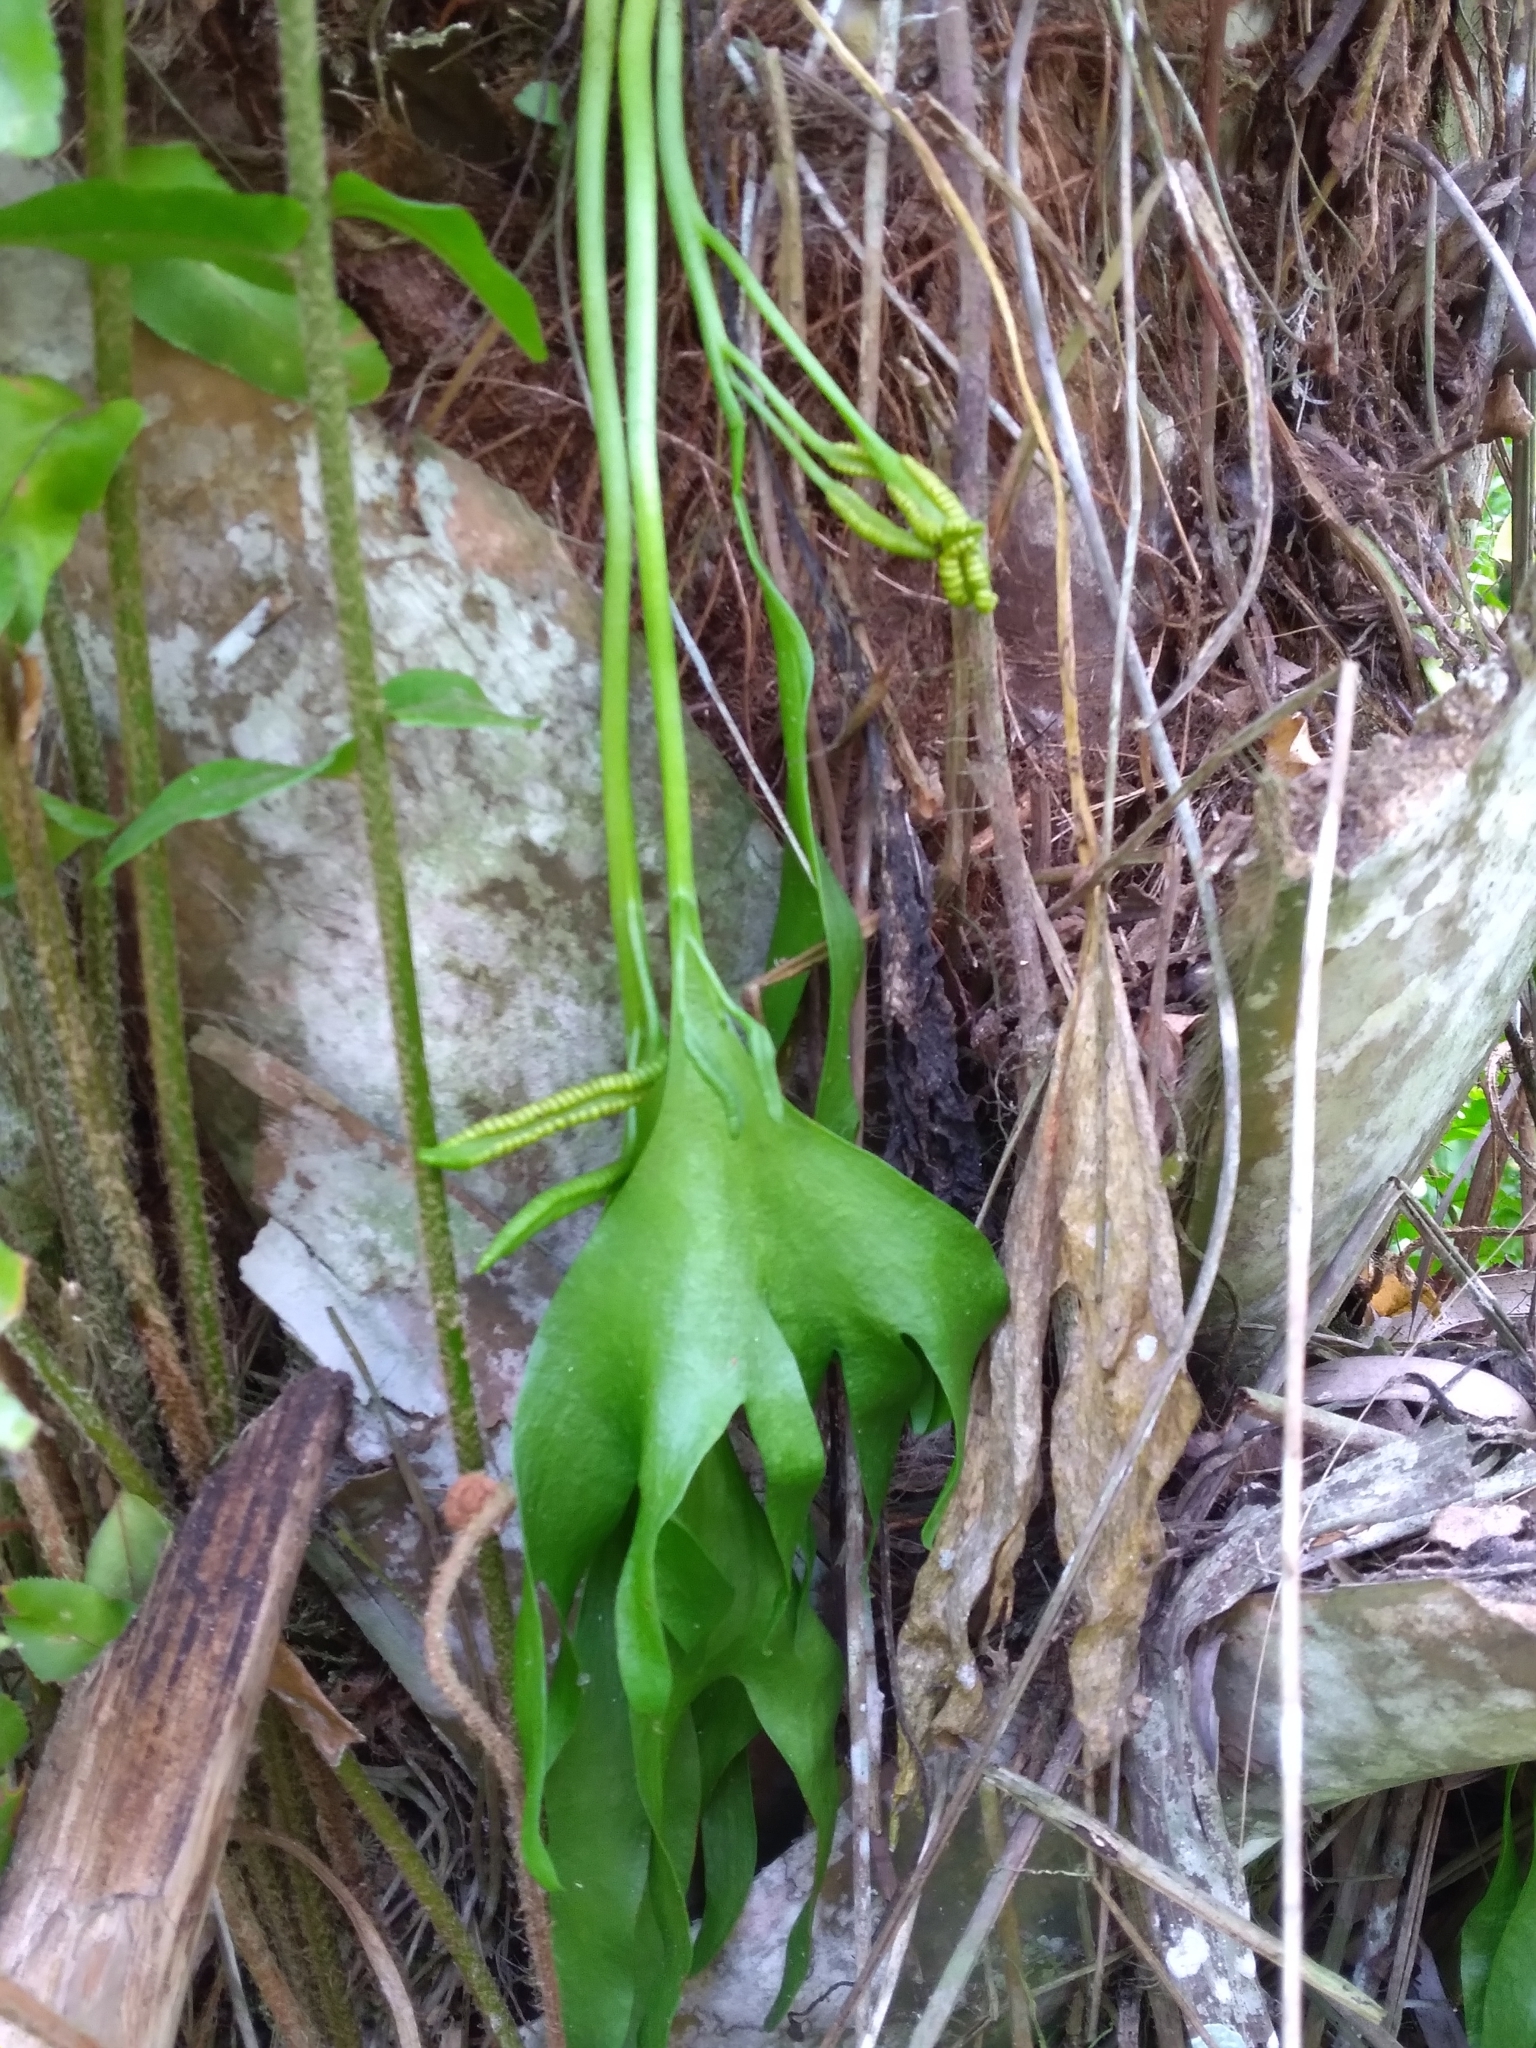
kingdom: Plantae
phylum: Tracheophyta
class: Polypodiopsida
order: Ophioglossales
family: Ophioglossaceae
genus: Cheiroglossa
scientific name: Cheiroglossa palmata
